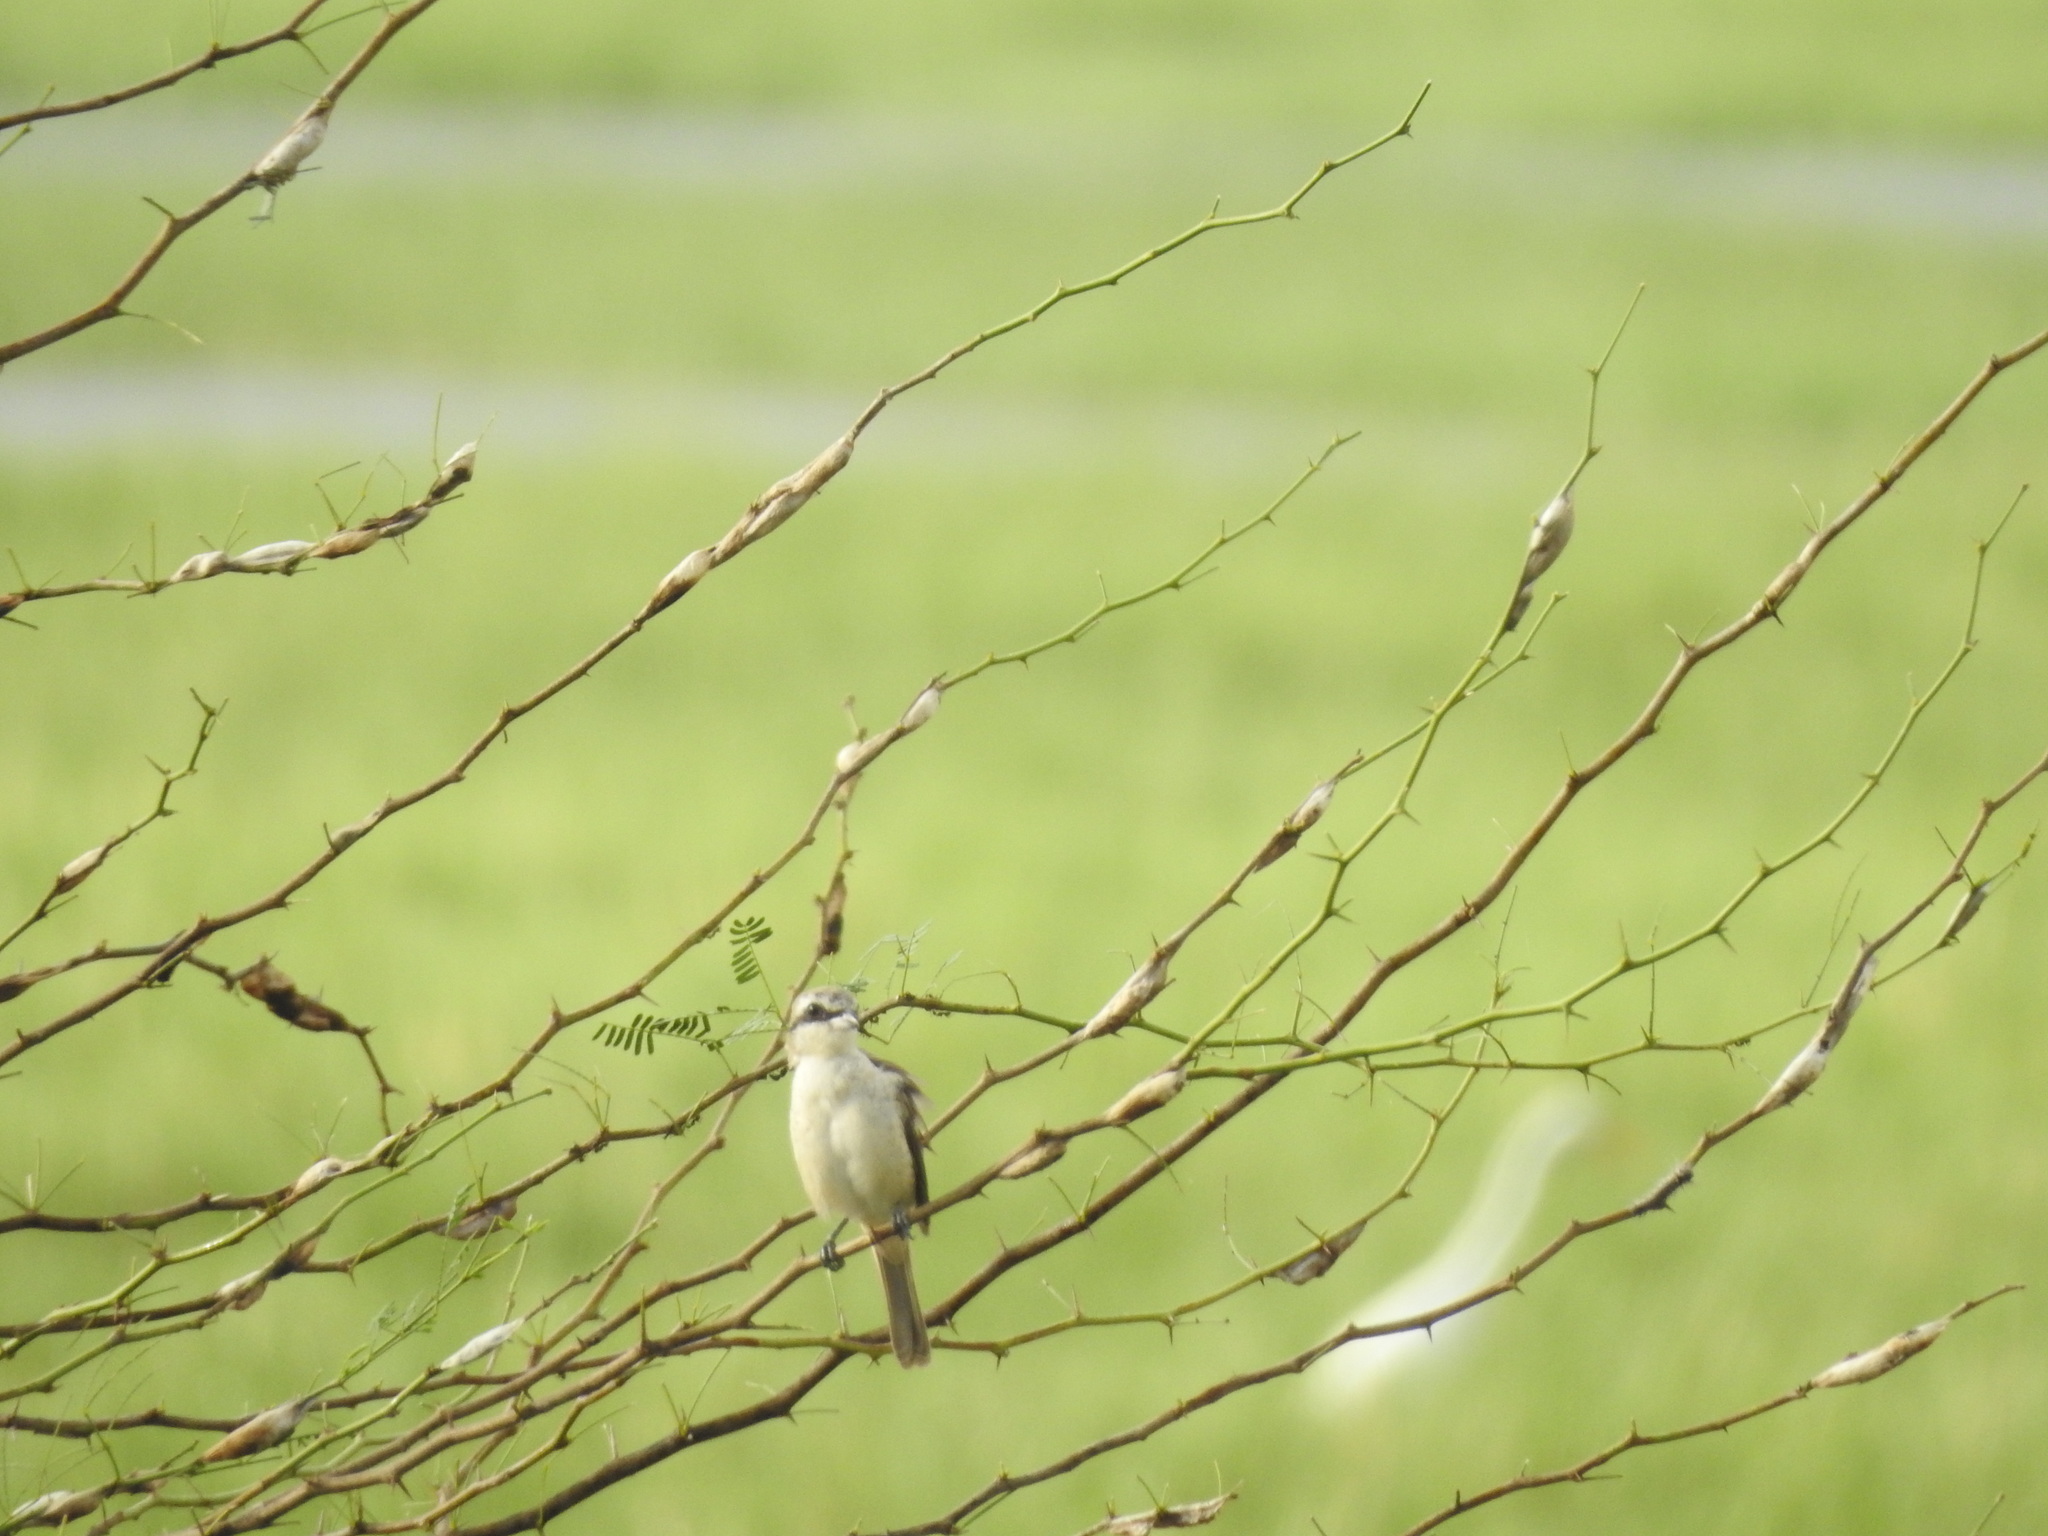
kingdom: Animalia
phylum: Chordata
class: Aves
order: Passeriformes
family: Laniidae
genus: Lanius
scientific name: Lanius cristatus
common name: Brown shrike
